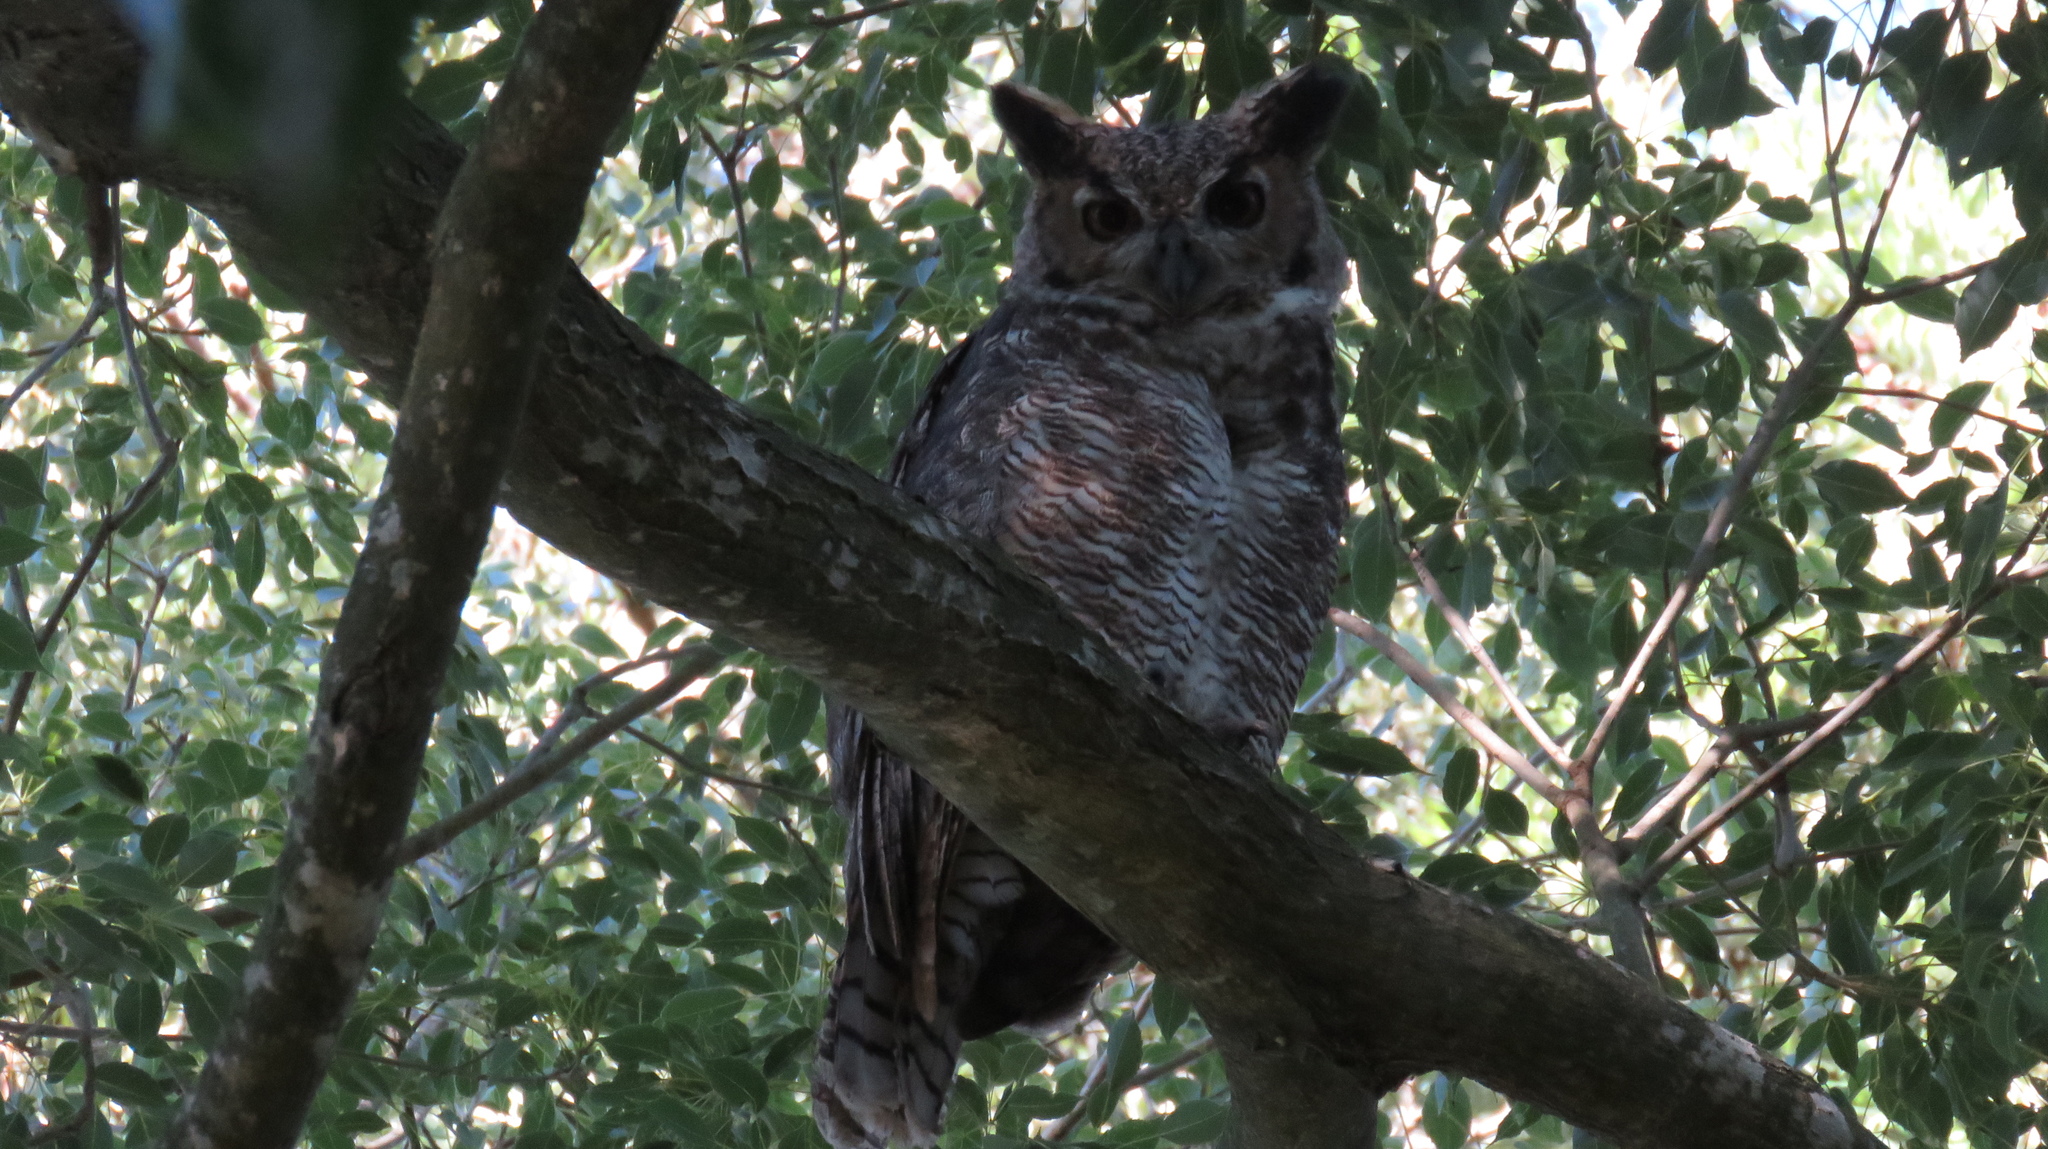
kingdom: Animalia
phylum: Chordata
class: Aves
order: Strigiformes
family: Strigidae
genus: Bubo
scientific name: Bubo virginianus
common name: Great horned owl
